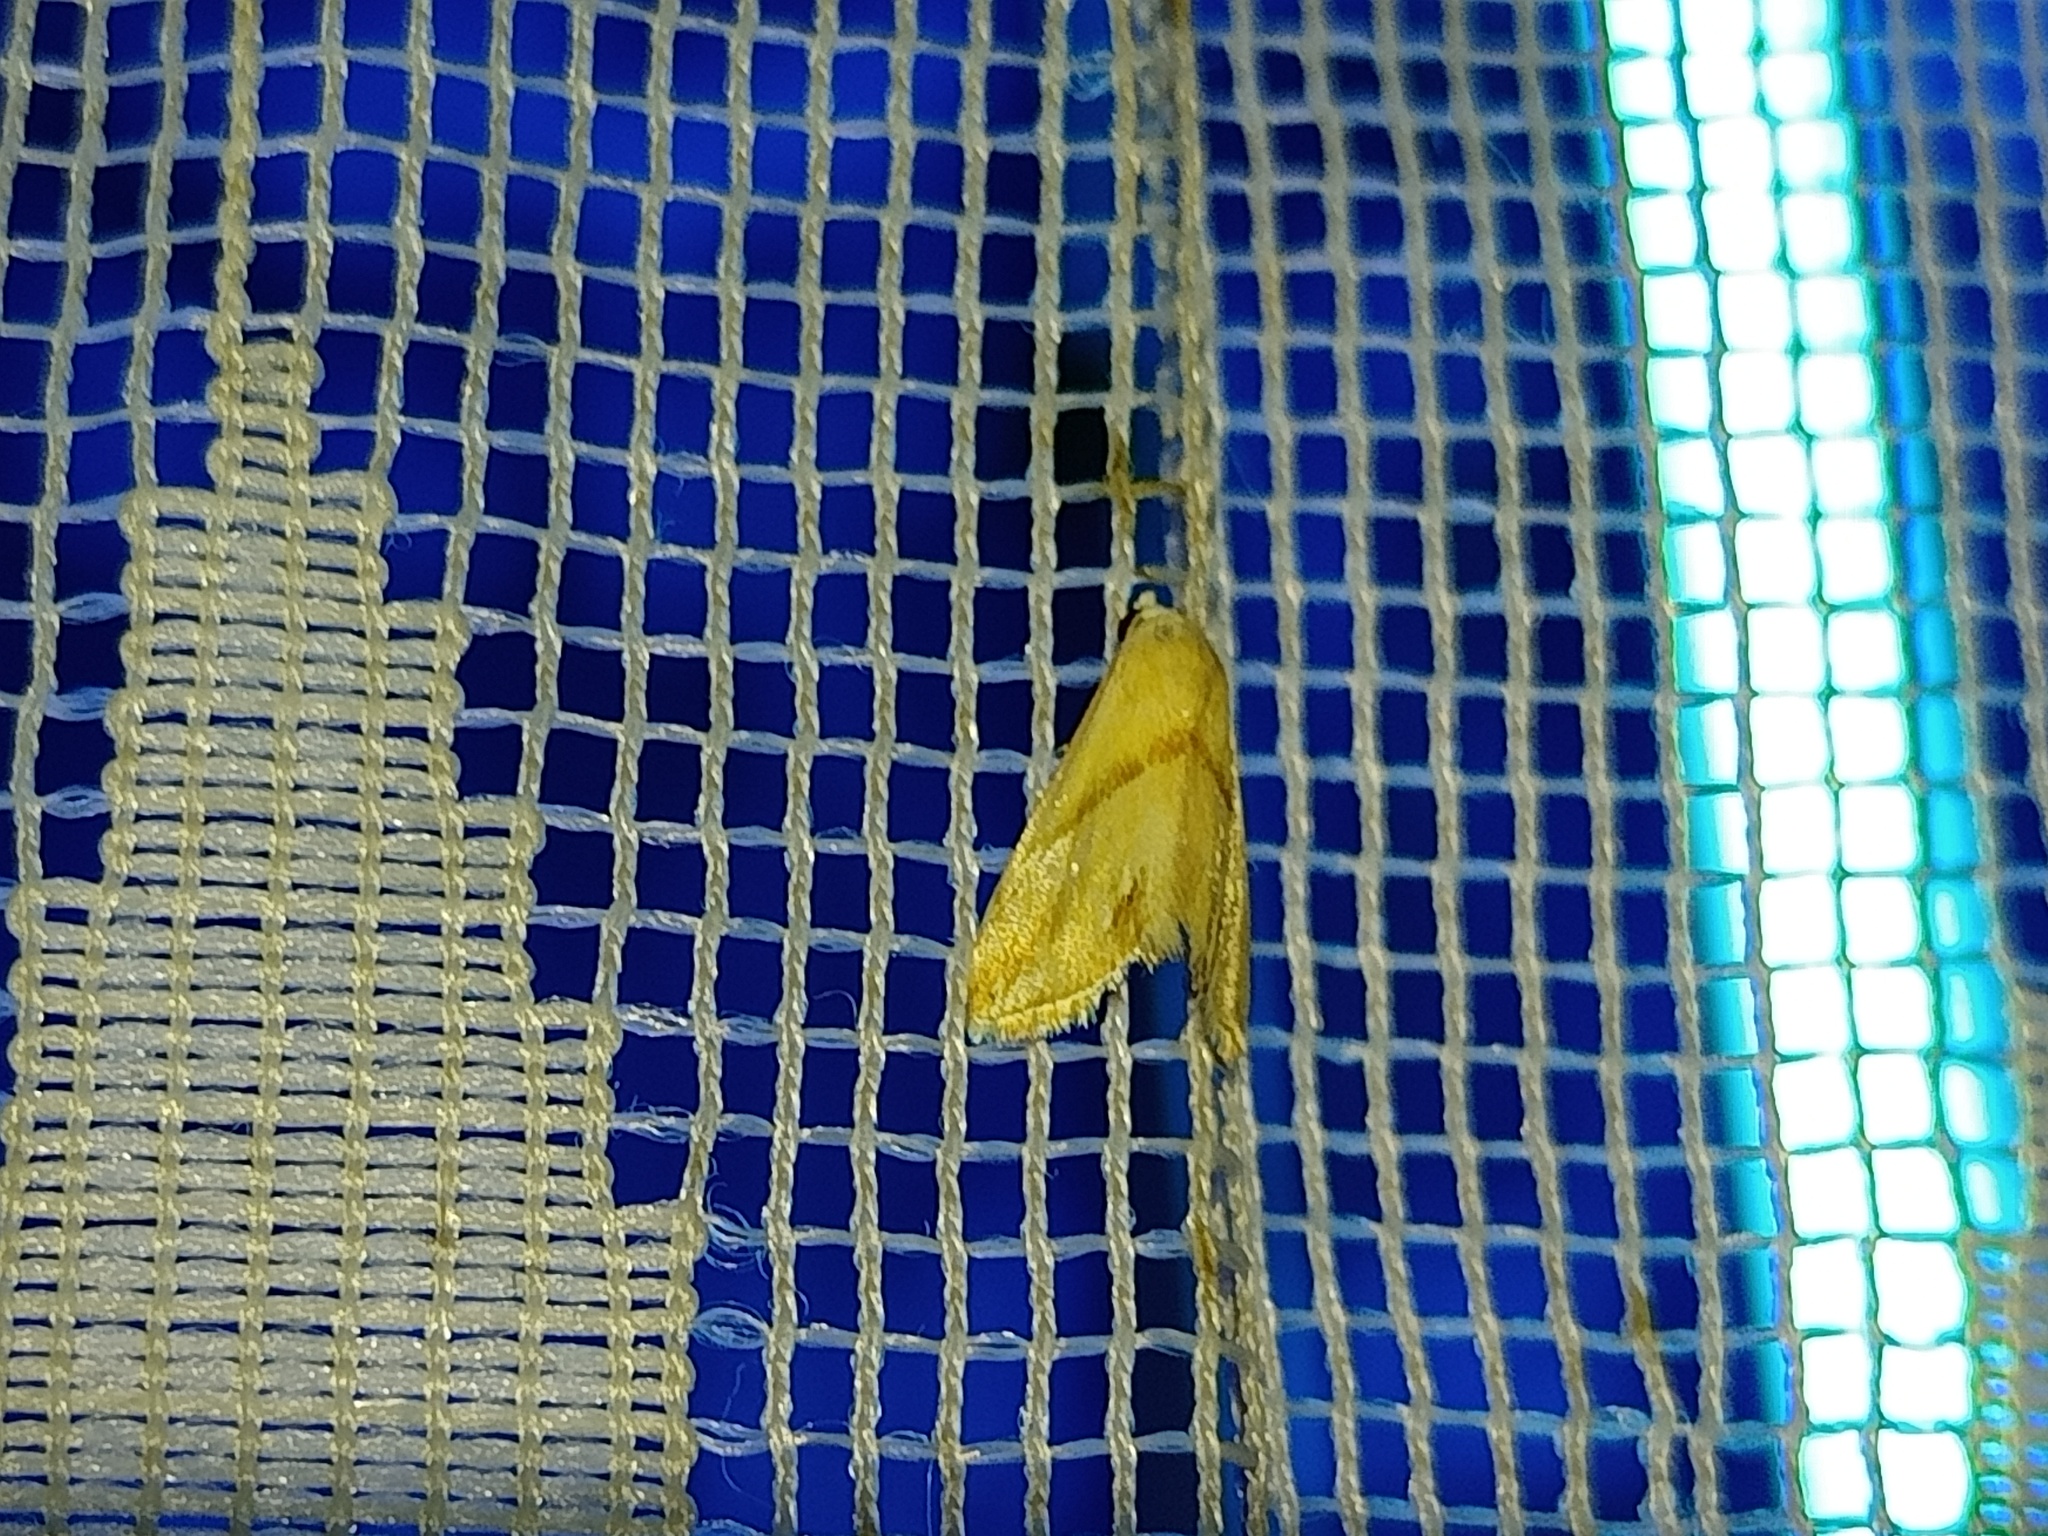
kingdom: Animalia
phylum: Arthropoda
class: Insecta
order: Lepidoptera
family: Noctuidae
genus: Eublemma
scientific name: Eublemma cochylioides
